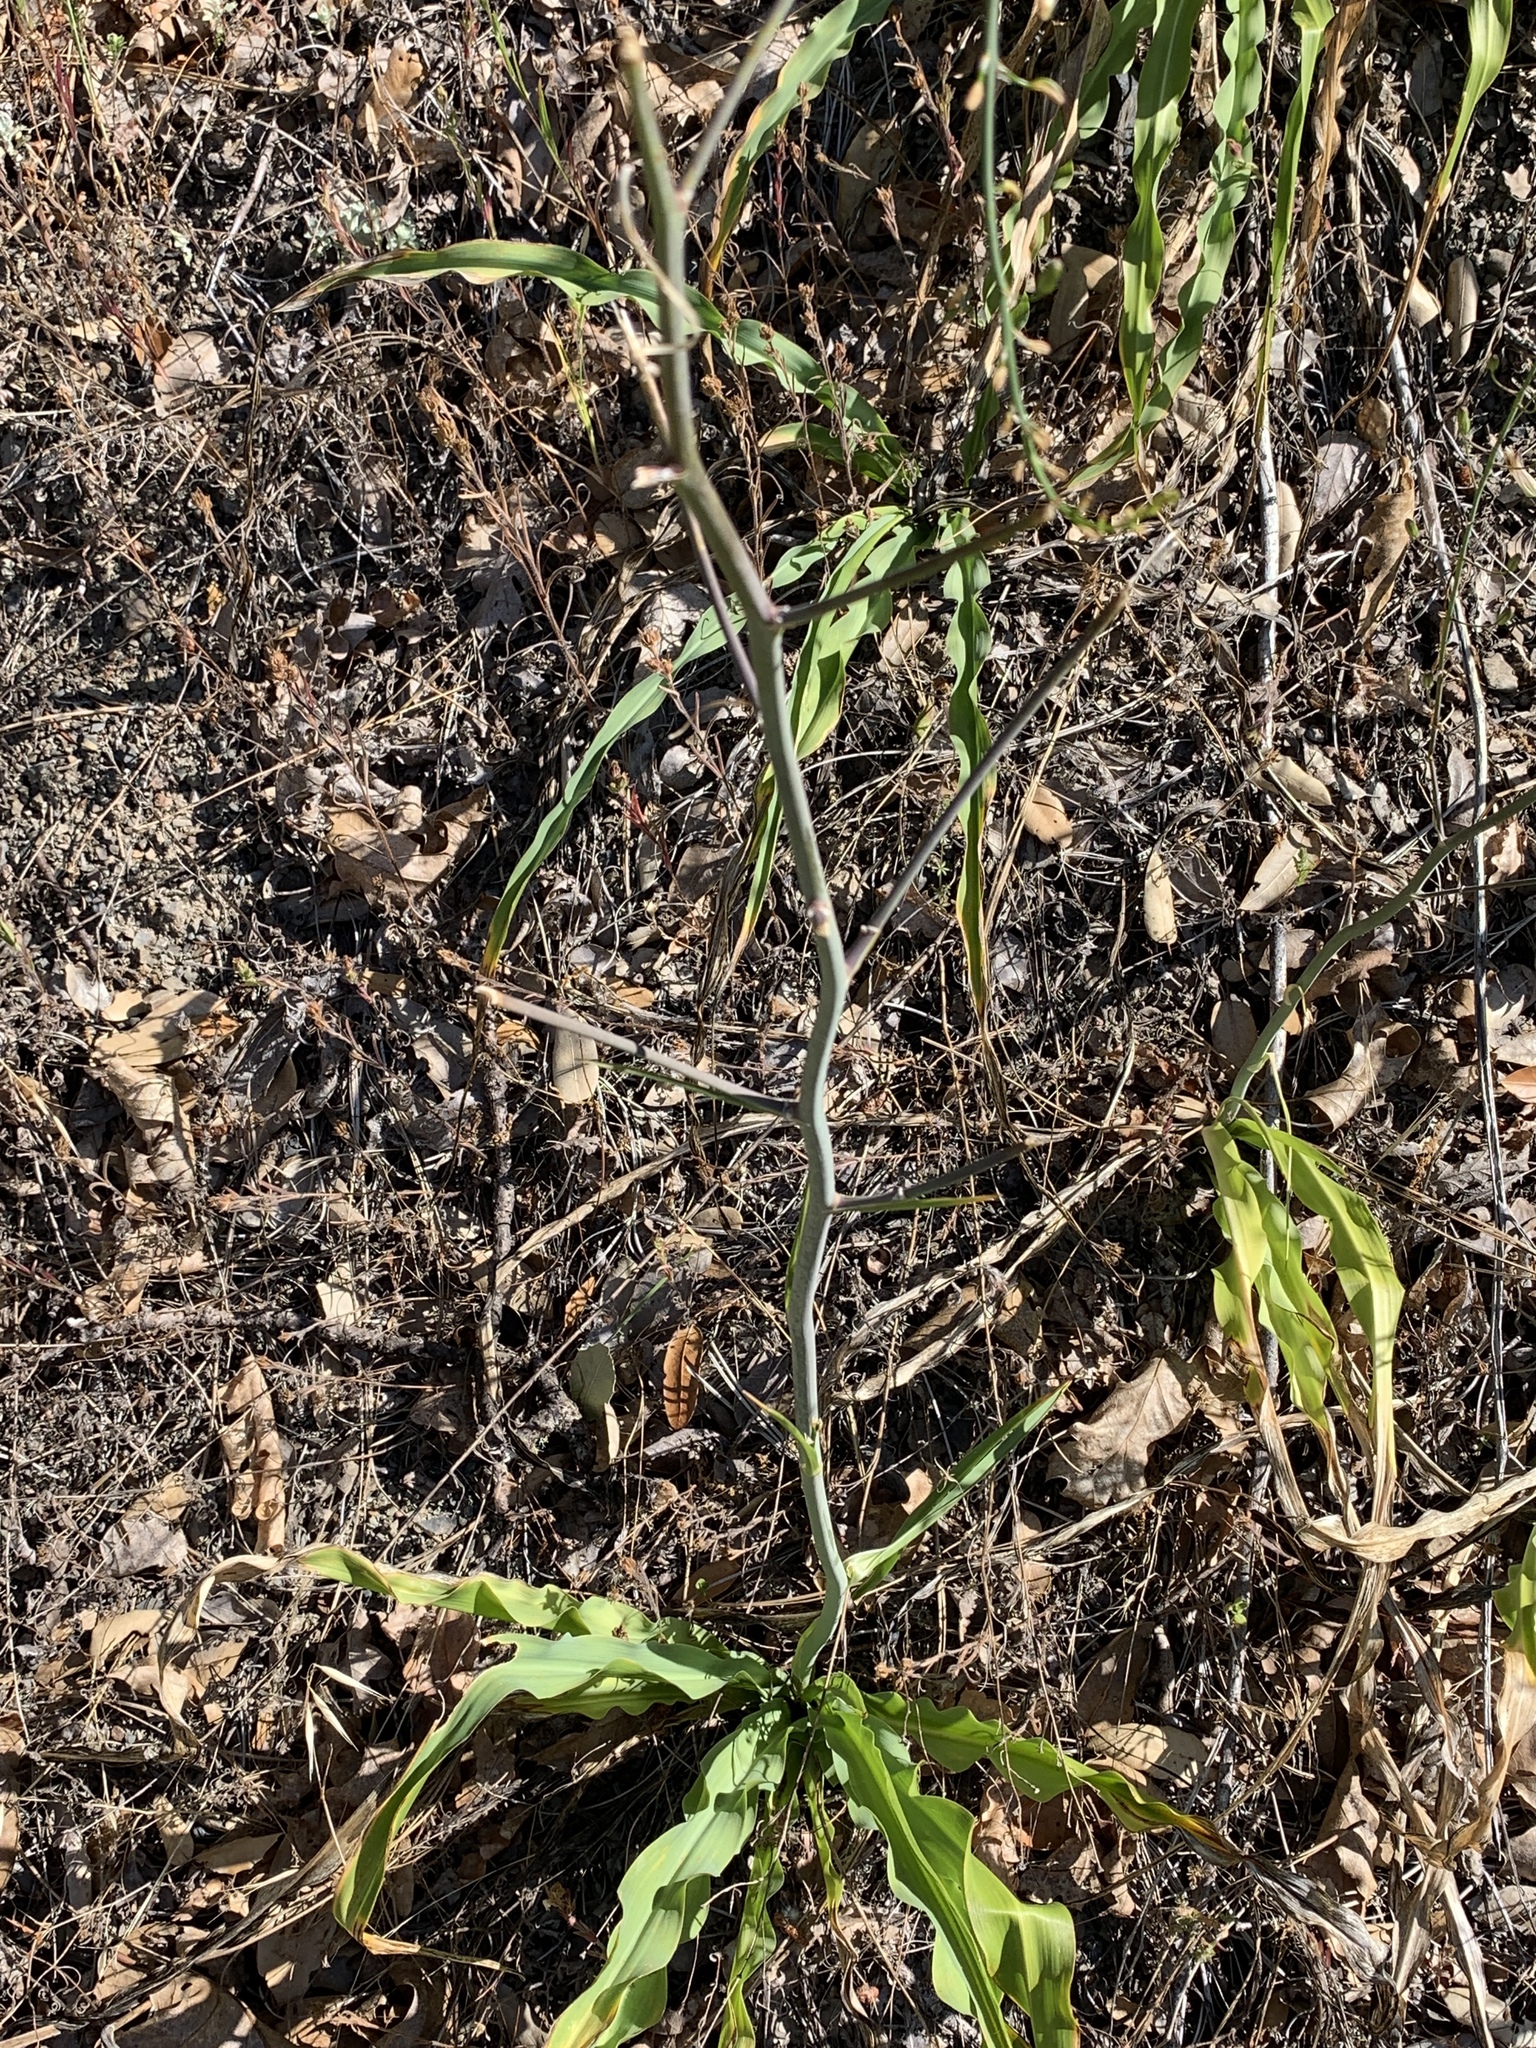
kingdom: Plantae
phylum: Tracheophyta
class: Liliopsida
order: Asparagales
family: Asparagaceae
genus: Chlorogalum
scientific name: Chlorogalum pomeridianum
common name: Amole
